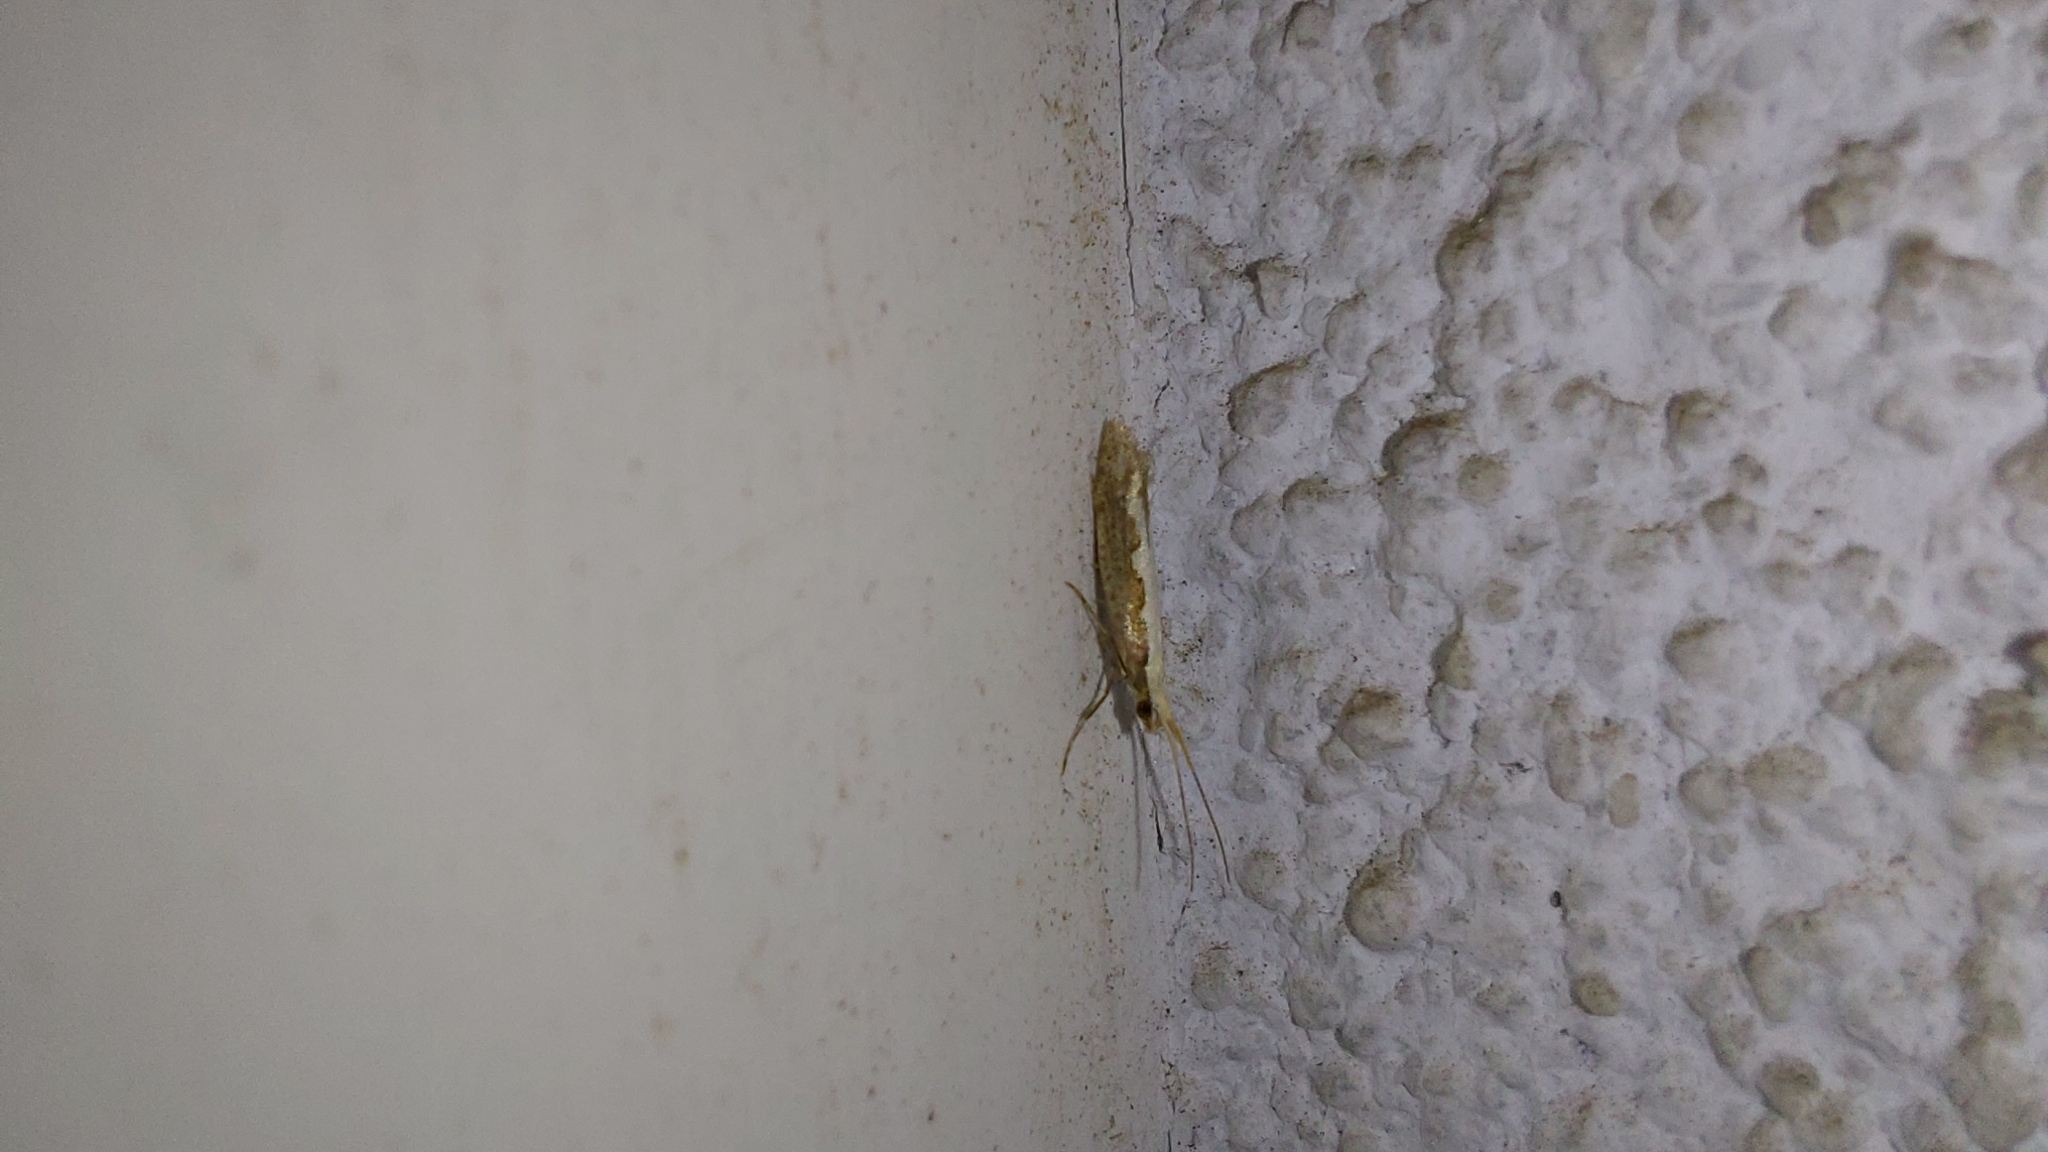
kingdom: Animalia
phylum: Arthropoda
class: Insecta
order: Lepidoptera
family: Plutellidae
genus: Plutella
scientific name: Plutella xylostella
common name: Diamond-back moth
